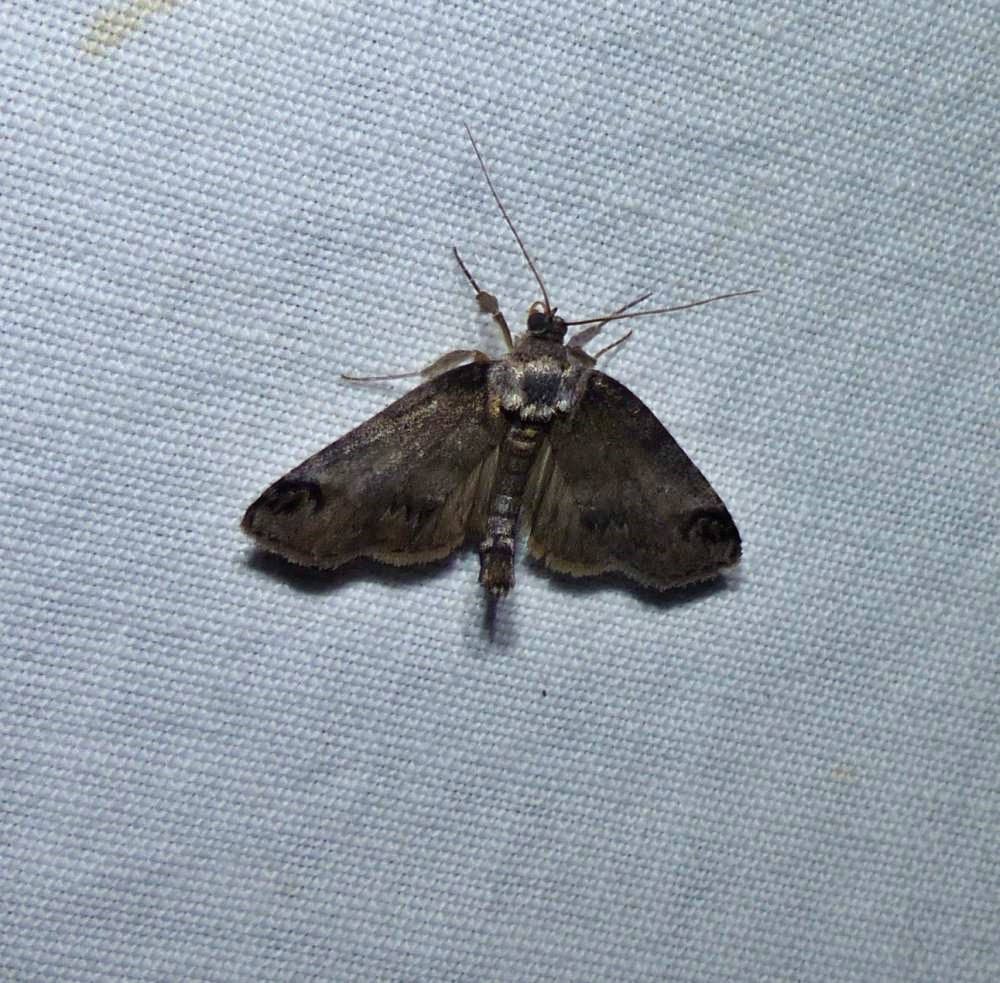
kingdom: Animalia
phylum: Arthropoda
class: Insecta
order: Lepidoptera
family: Nolidae
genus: Baileya
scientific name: Baileya dormitans
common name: Sleeping baileya moth
